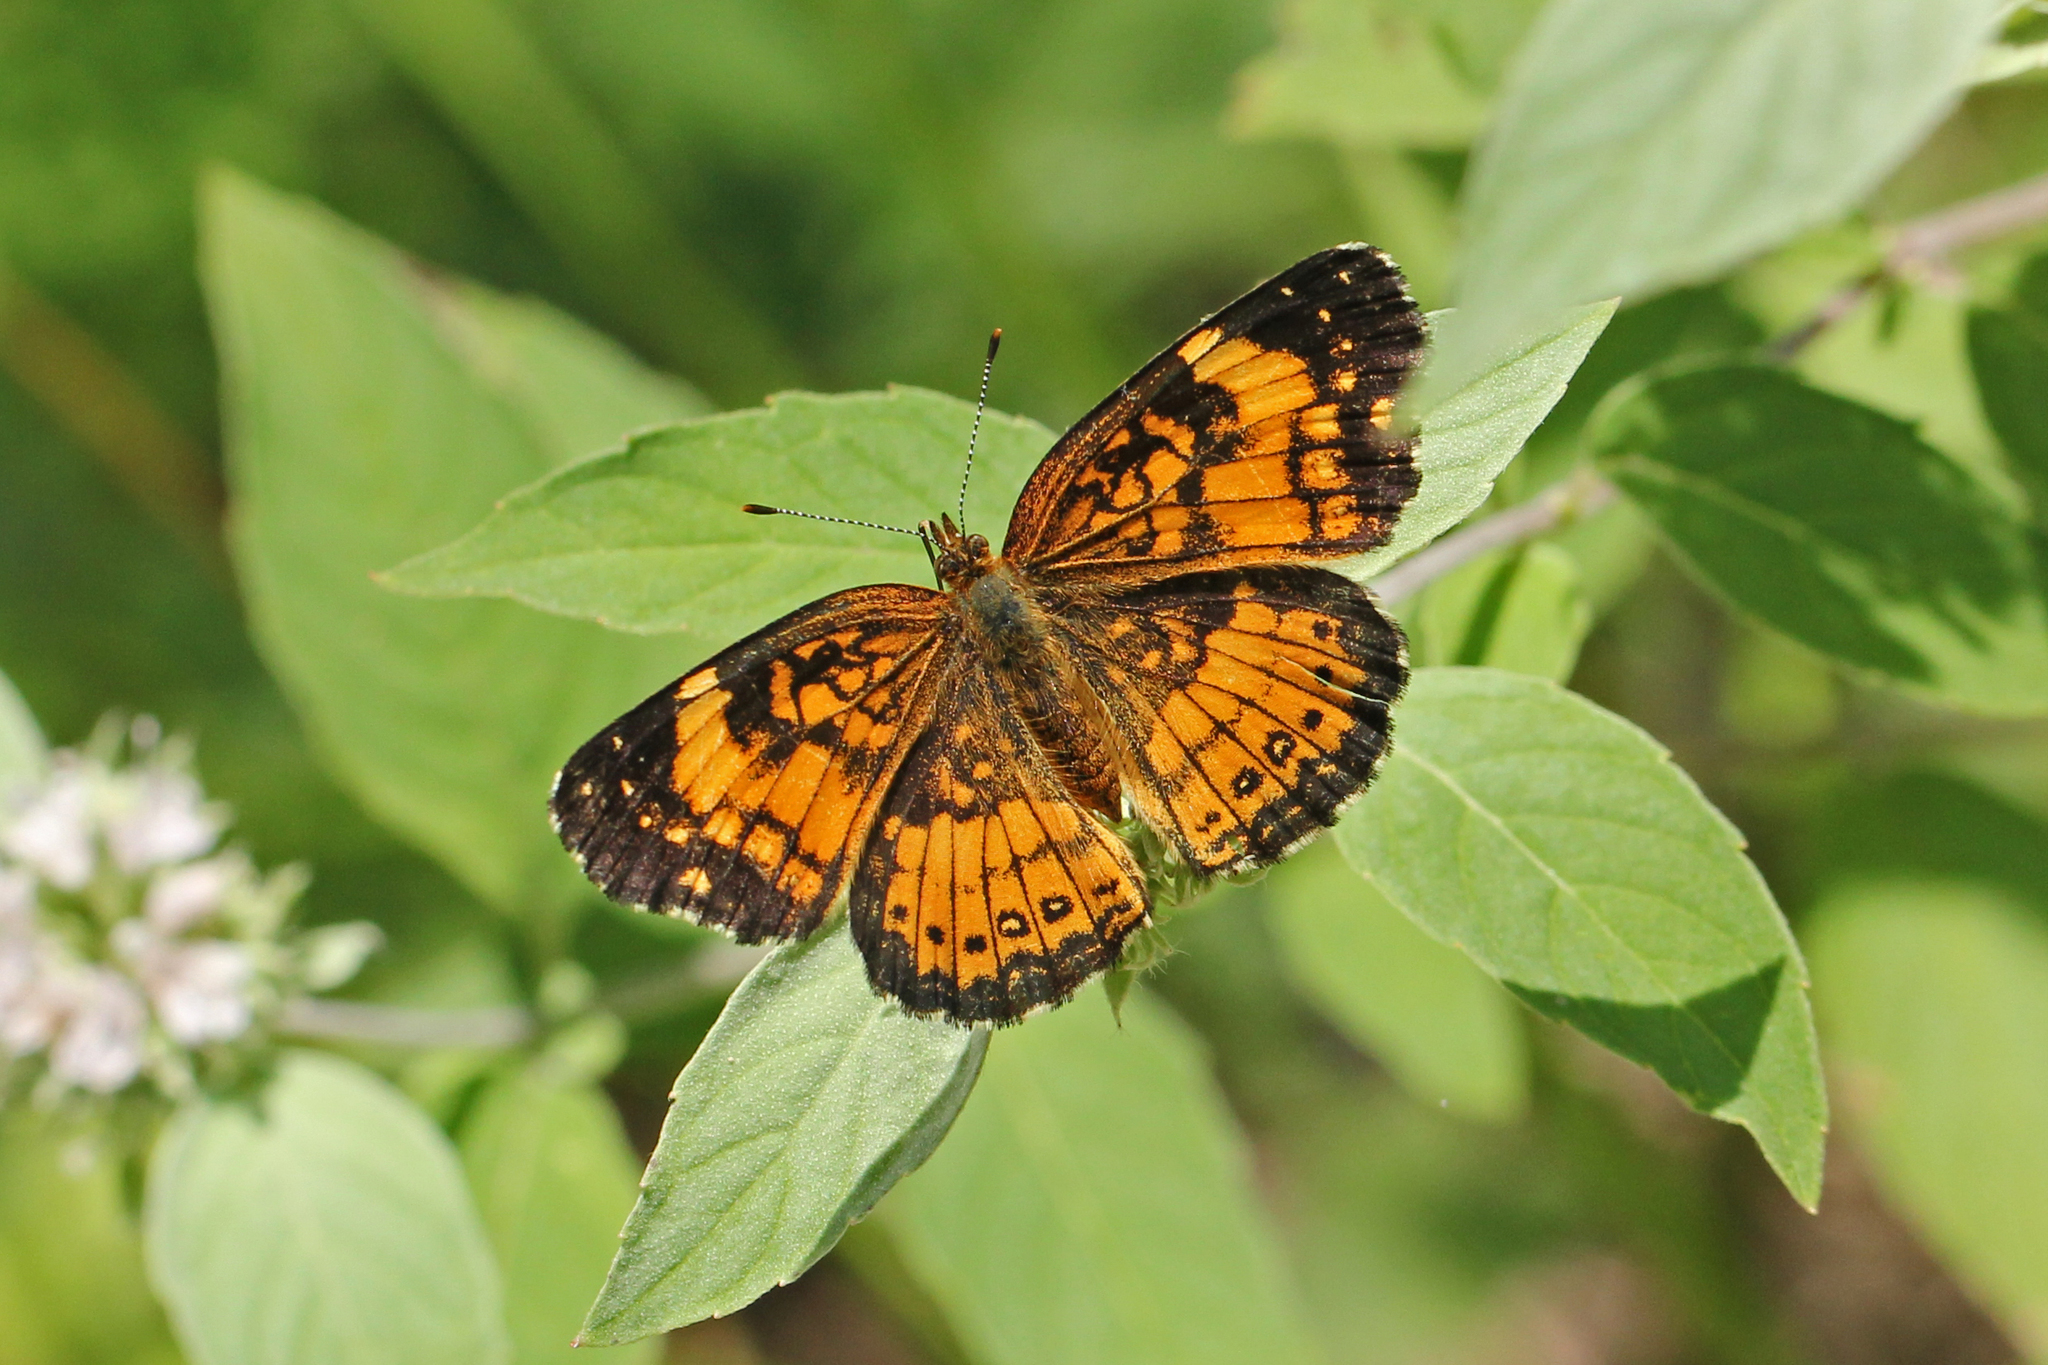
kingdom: Animalia
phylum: Arthropoda
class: Insecta
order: Lepidoptera
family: Nymphalidae
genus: Chlosyne
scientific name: Chlosyne nycteis
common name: Silvery checkerspot
